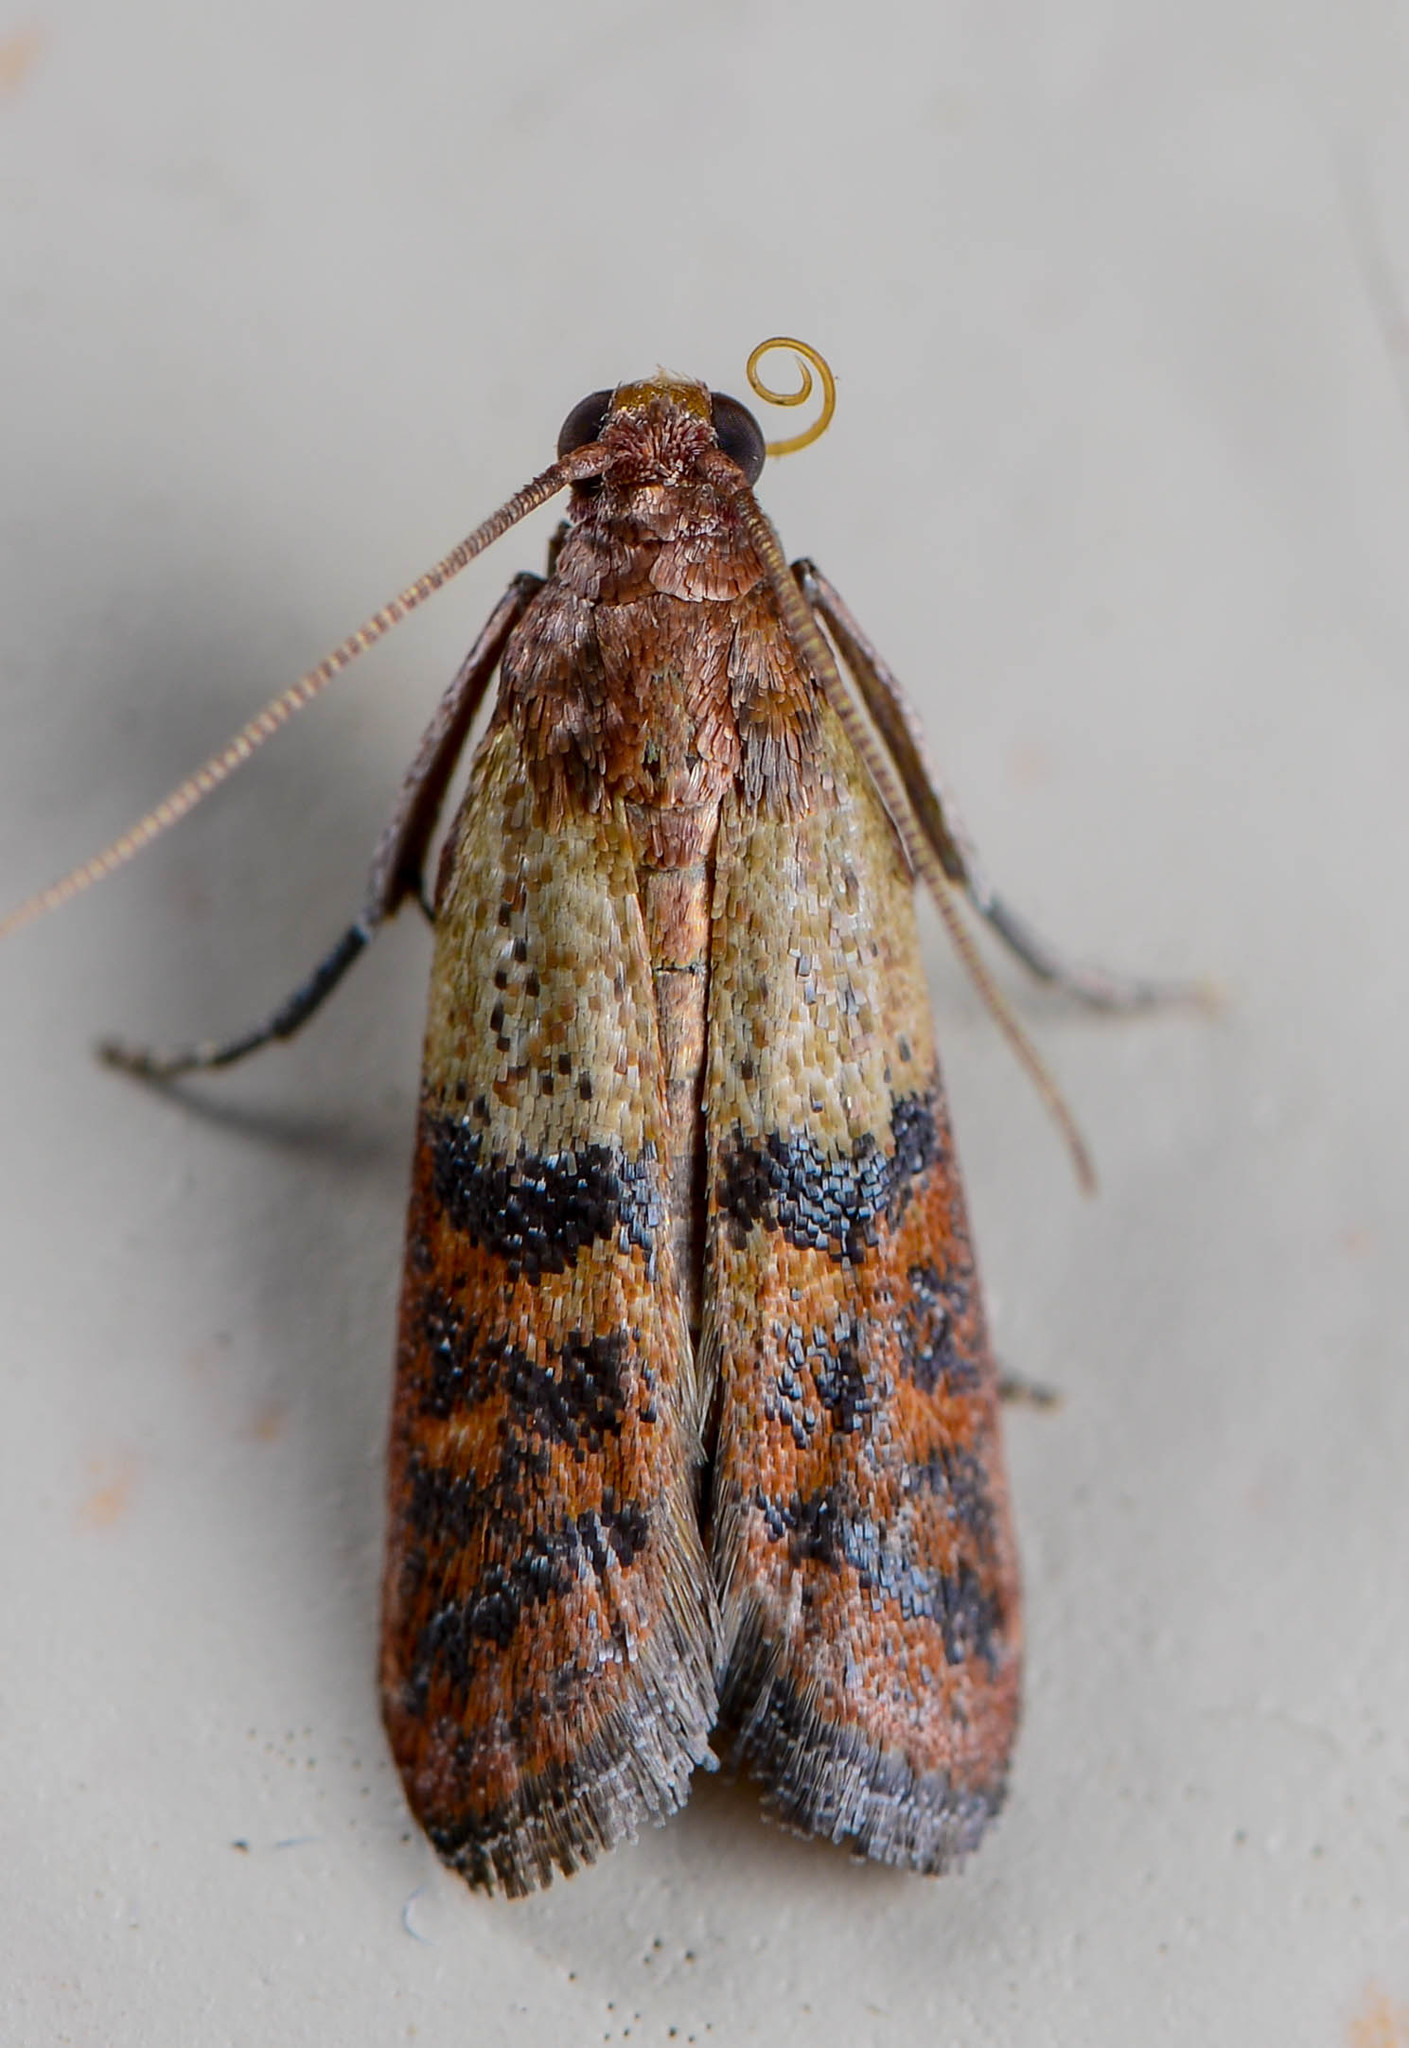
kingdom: Animalia
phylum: Arthropoda
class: Insecta
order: Lepidoptera
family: Pyralidae
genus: Plodia
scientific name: Plodia interpunctella
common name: Indian meal moth
